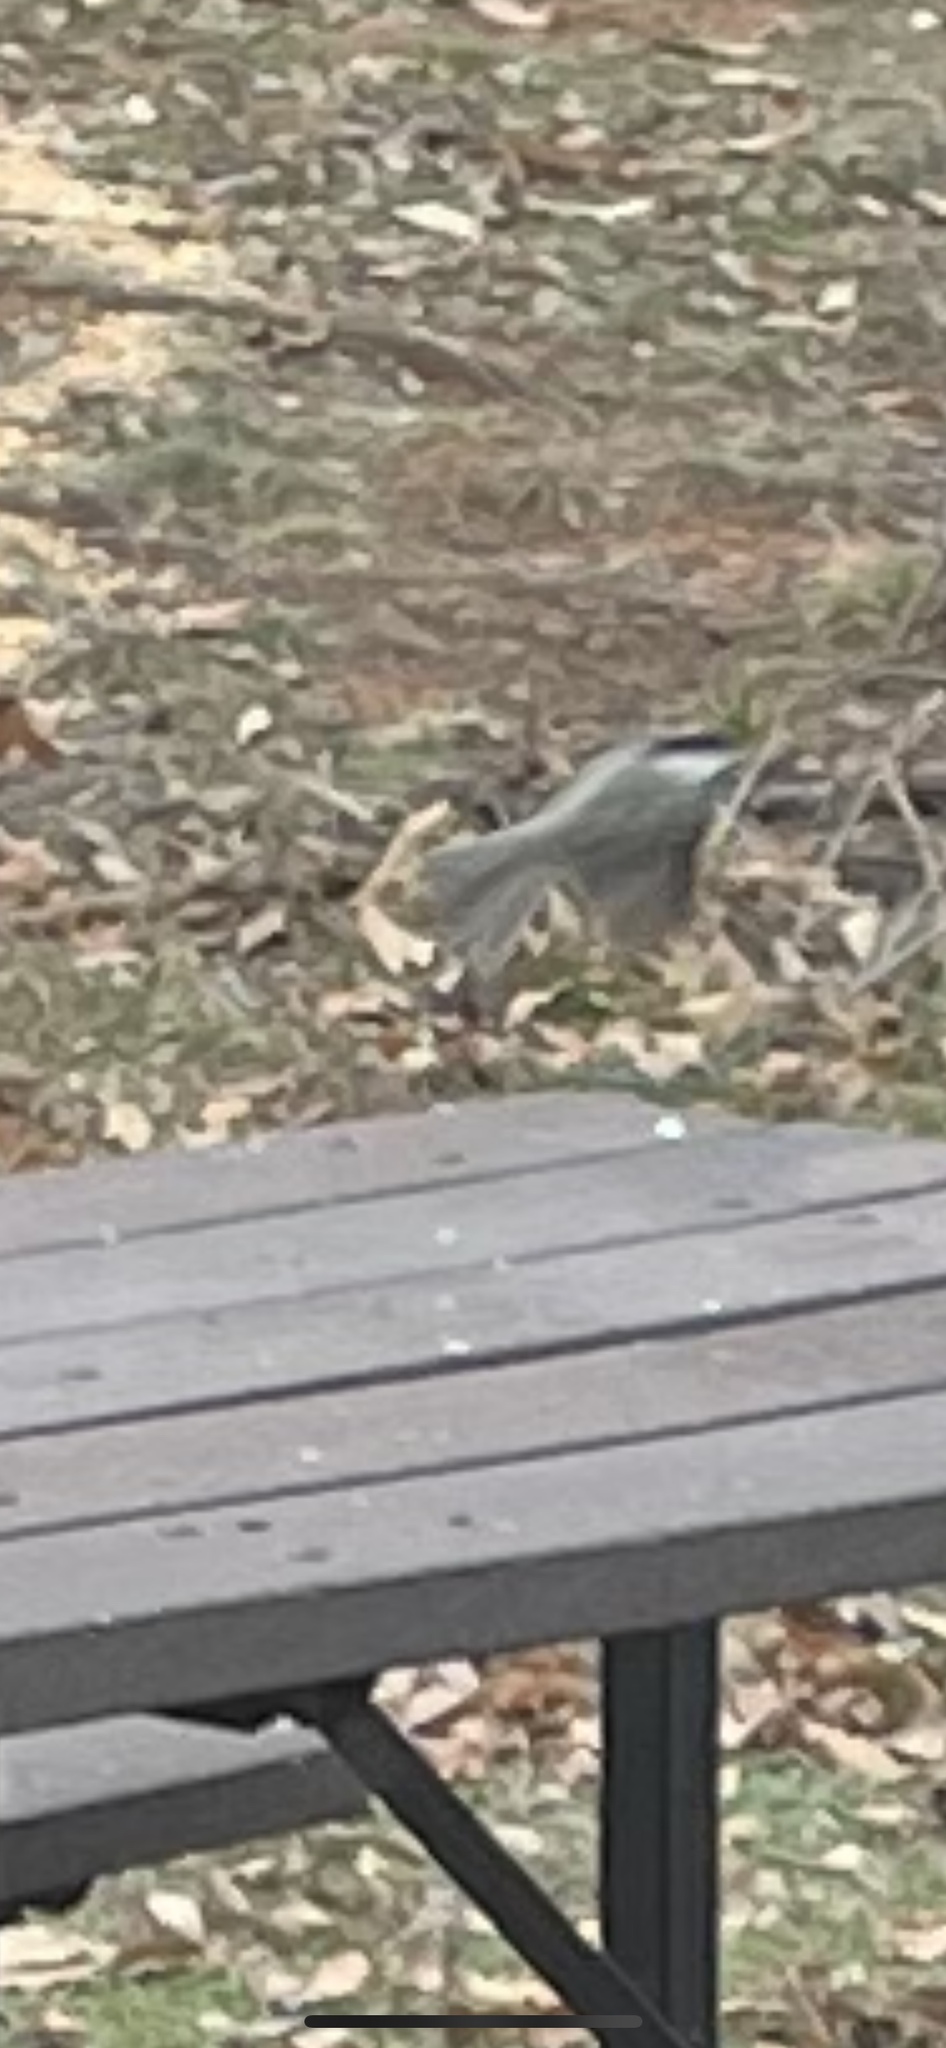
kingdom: Animalia
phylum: Chordata
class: Aves
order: Passeriformes
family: Paridae
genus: Poecile
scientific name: Poecile carolinensis
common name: Carolina chickadee
